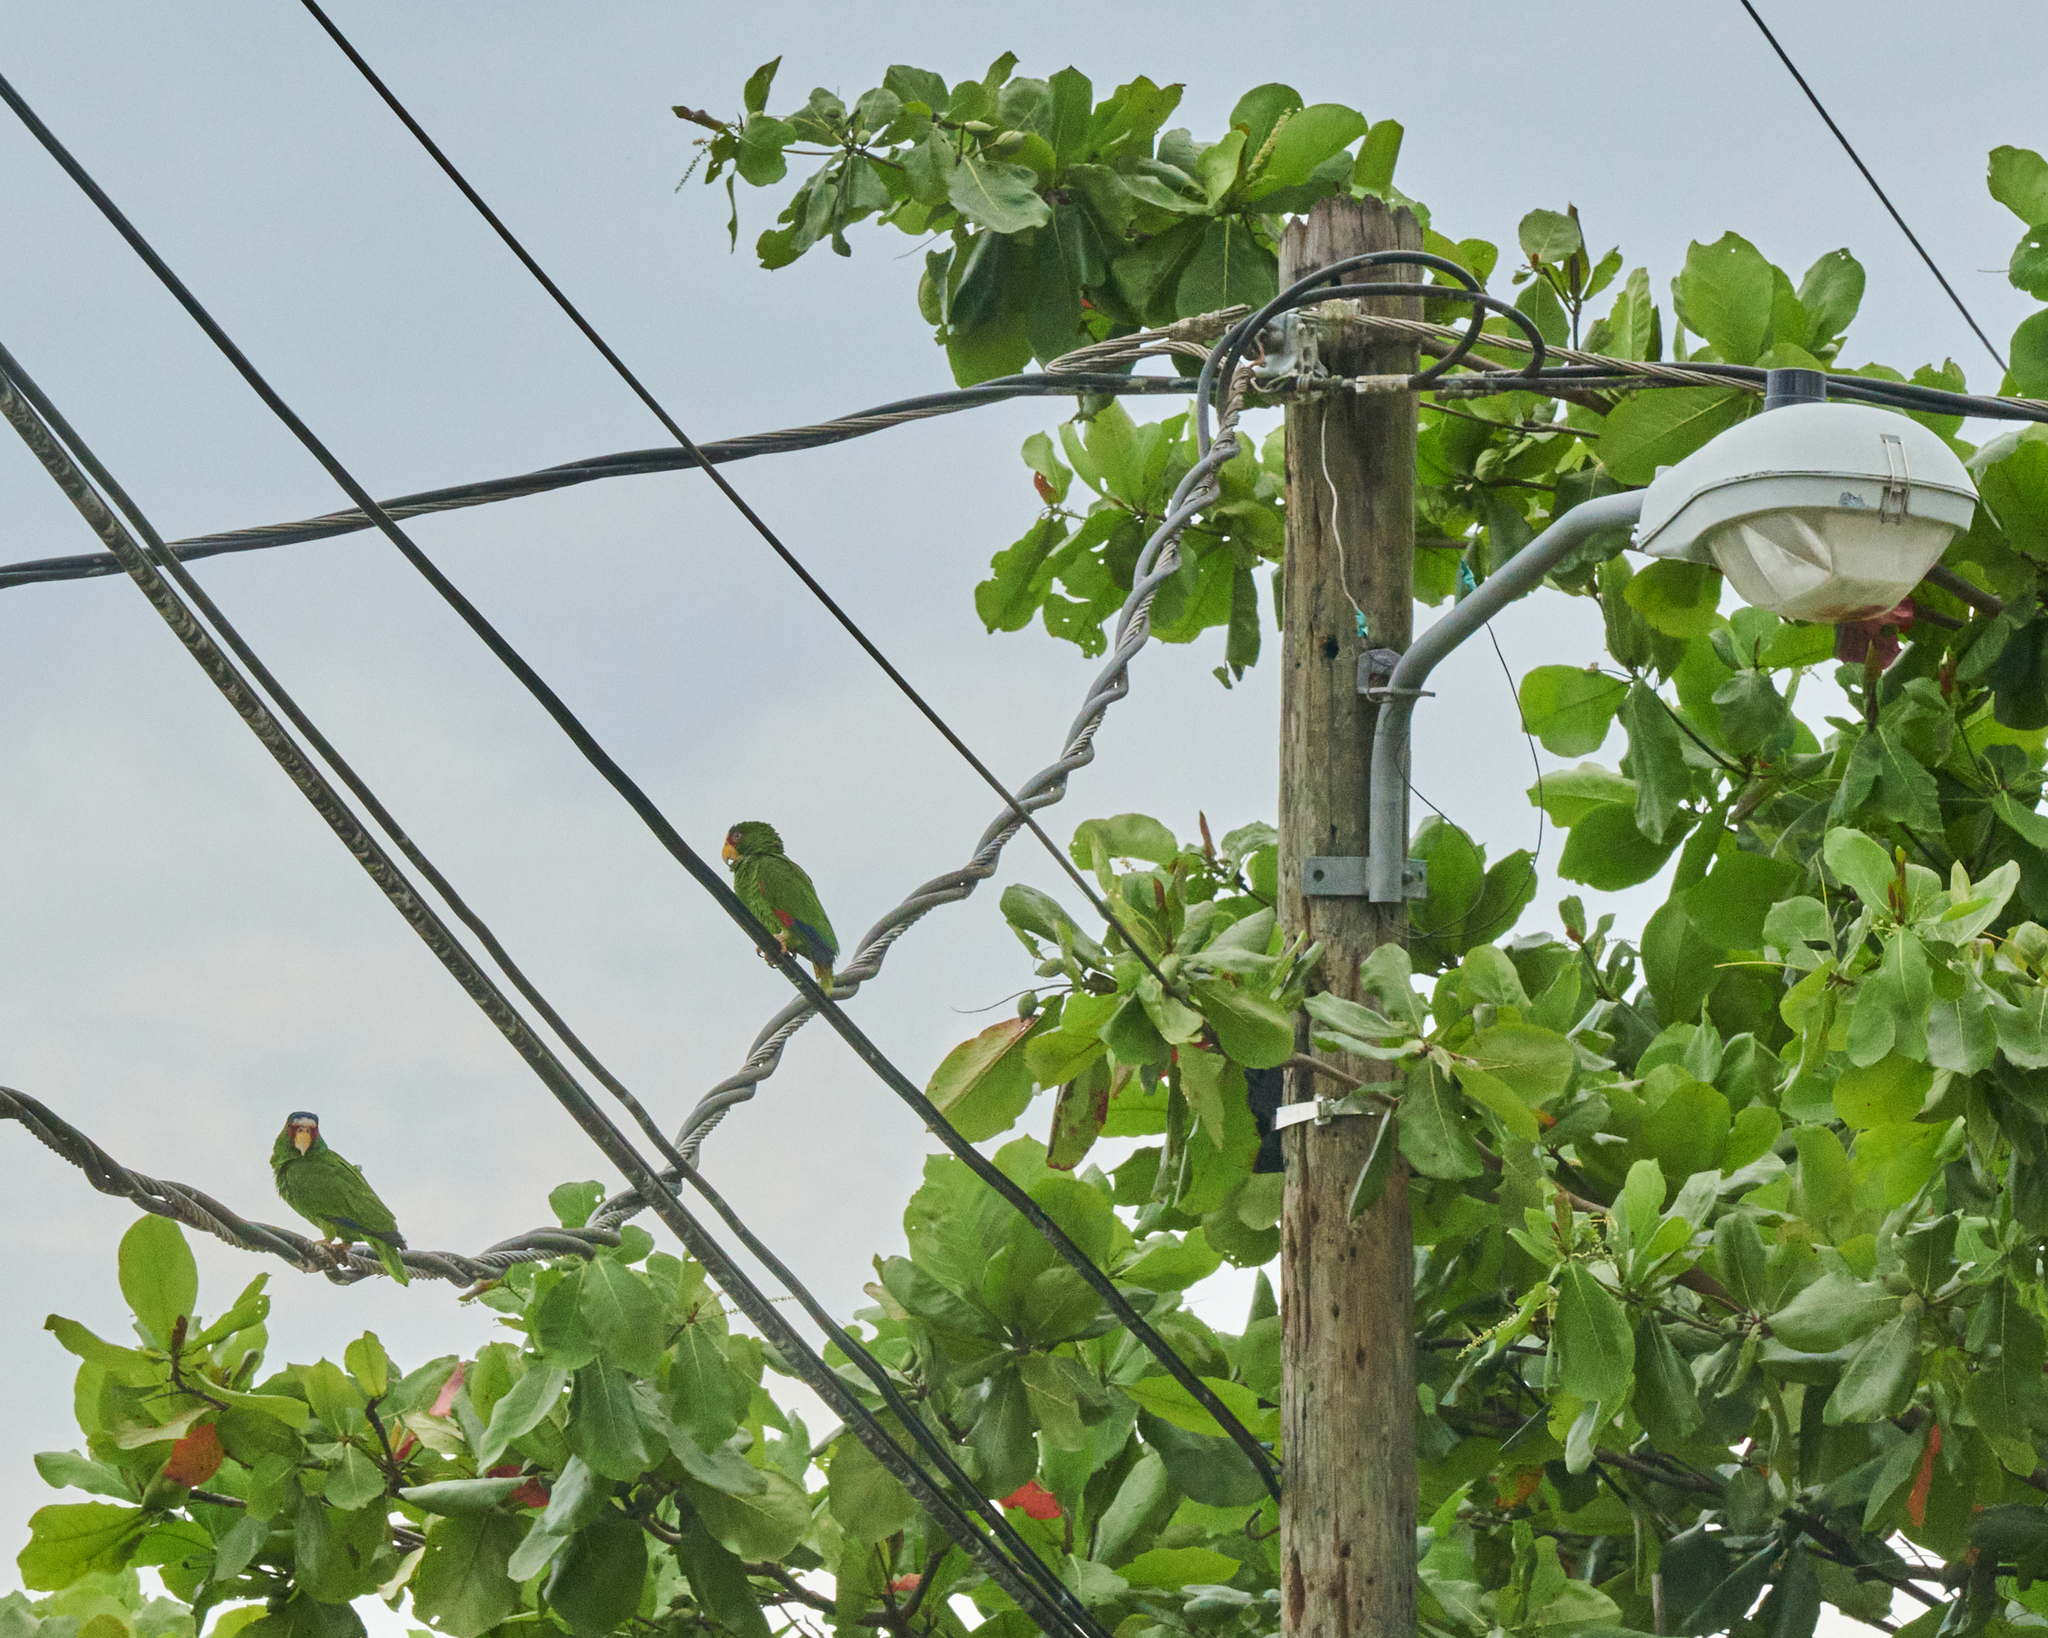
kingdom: Animalia
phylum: Chordata
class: Aves
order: Psittaciformes
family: Psittacidae
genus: Amazona
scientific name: Amazona albifrons
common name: White-fronted amazon
